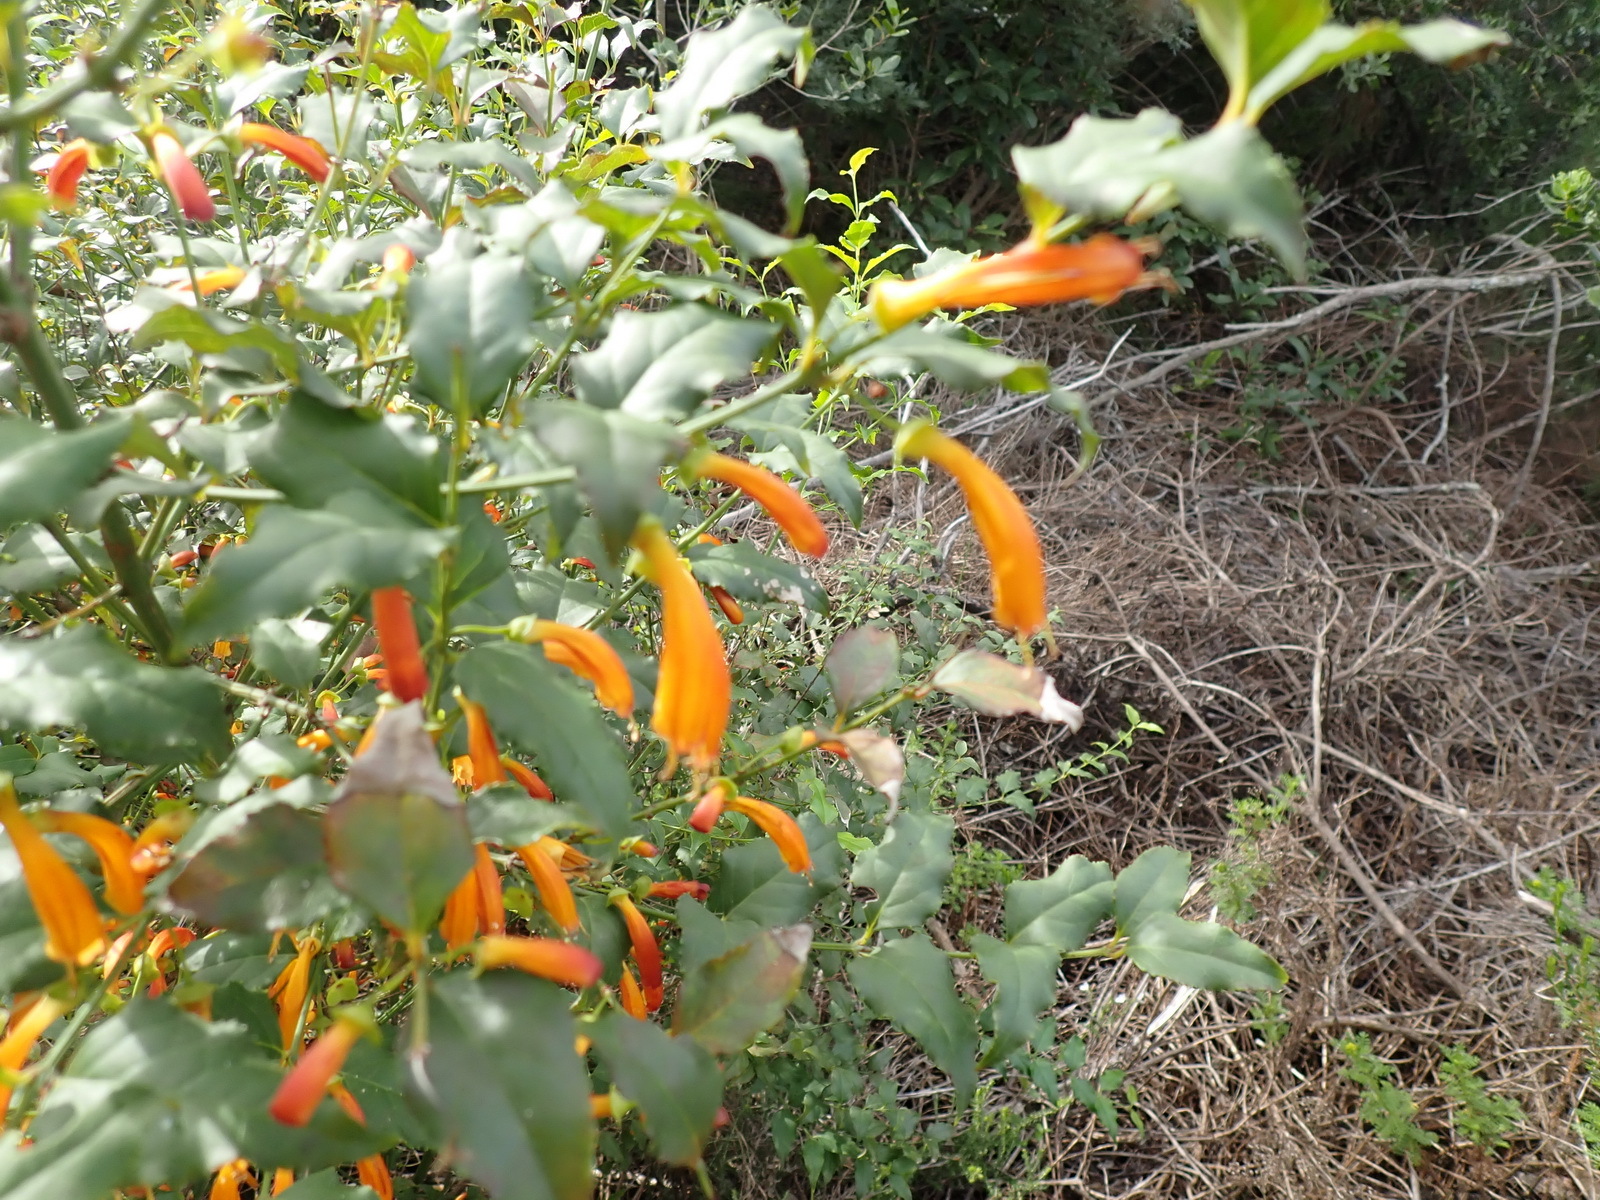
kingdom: Plantae
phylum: Tracheophyta
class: Magnoliopsida
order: Lamiales
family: Stilbaceae
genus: Halleria
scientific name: Halleria lucida
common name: Tree fuschia
